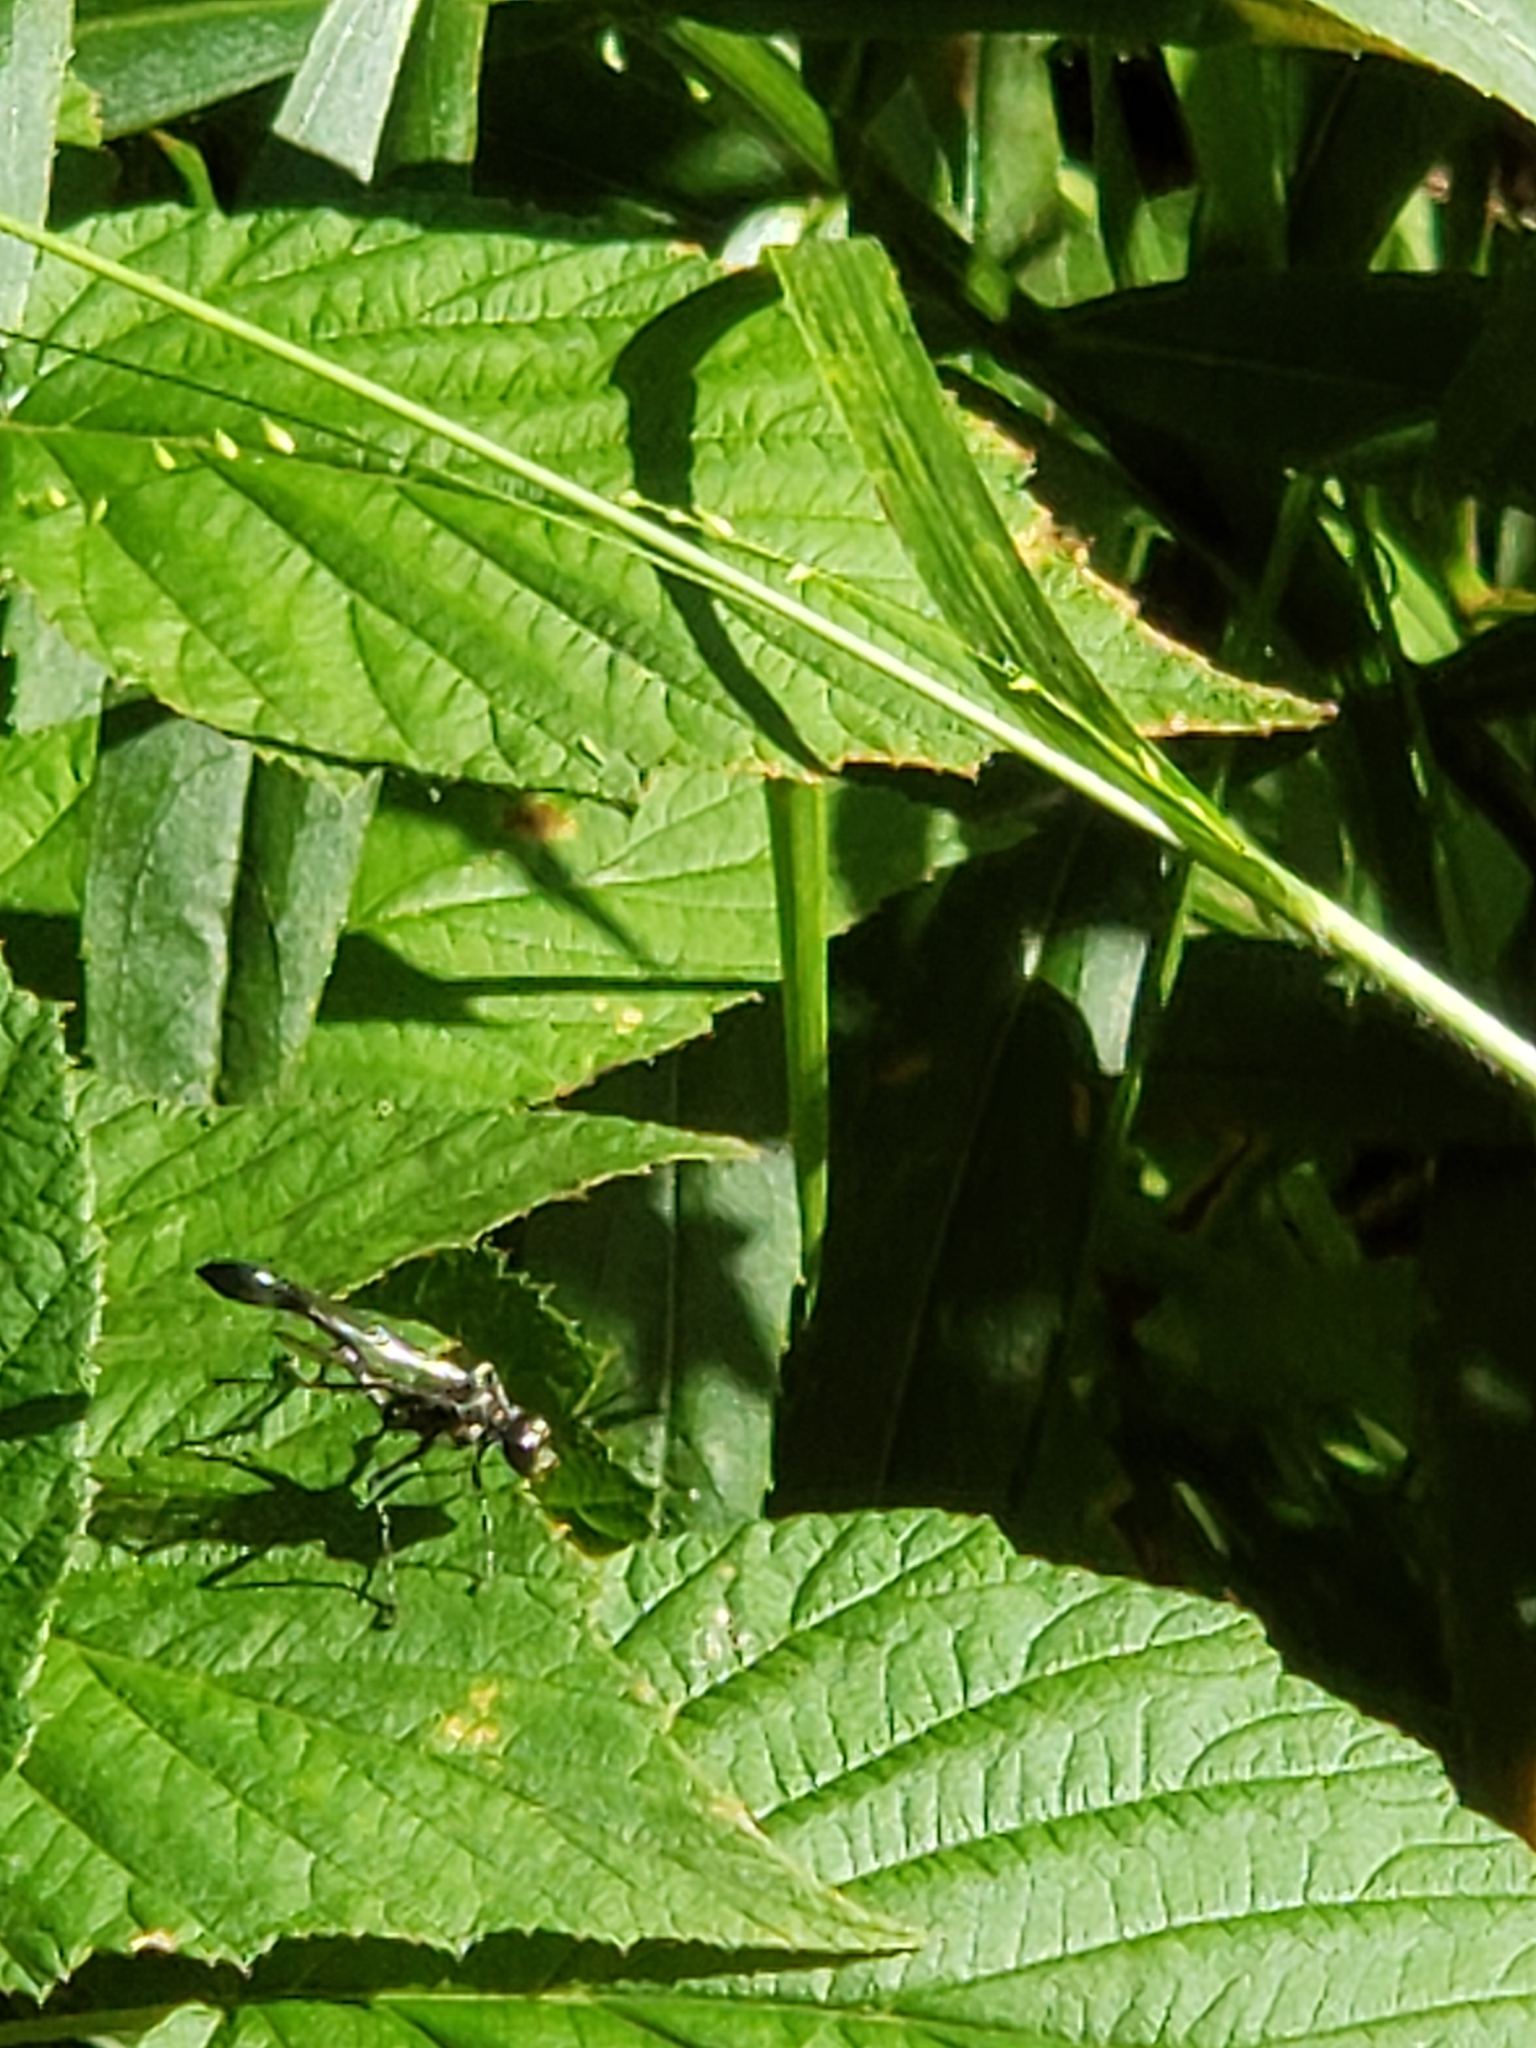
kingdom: Animalia
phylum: Arthropoda
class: Insecta
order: Hymenoptera
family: Sphecidae
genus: Eremnophila
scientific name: Eremnophila aureonotata
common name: Gold-marked thread-waisted wasp
